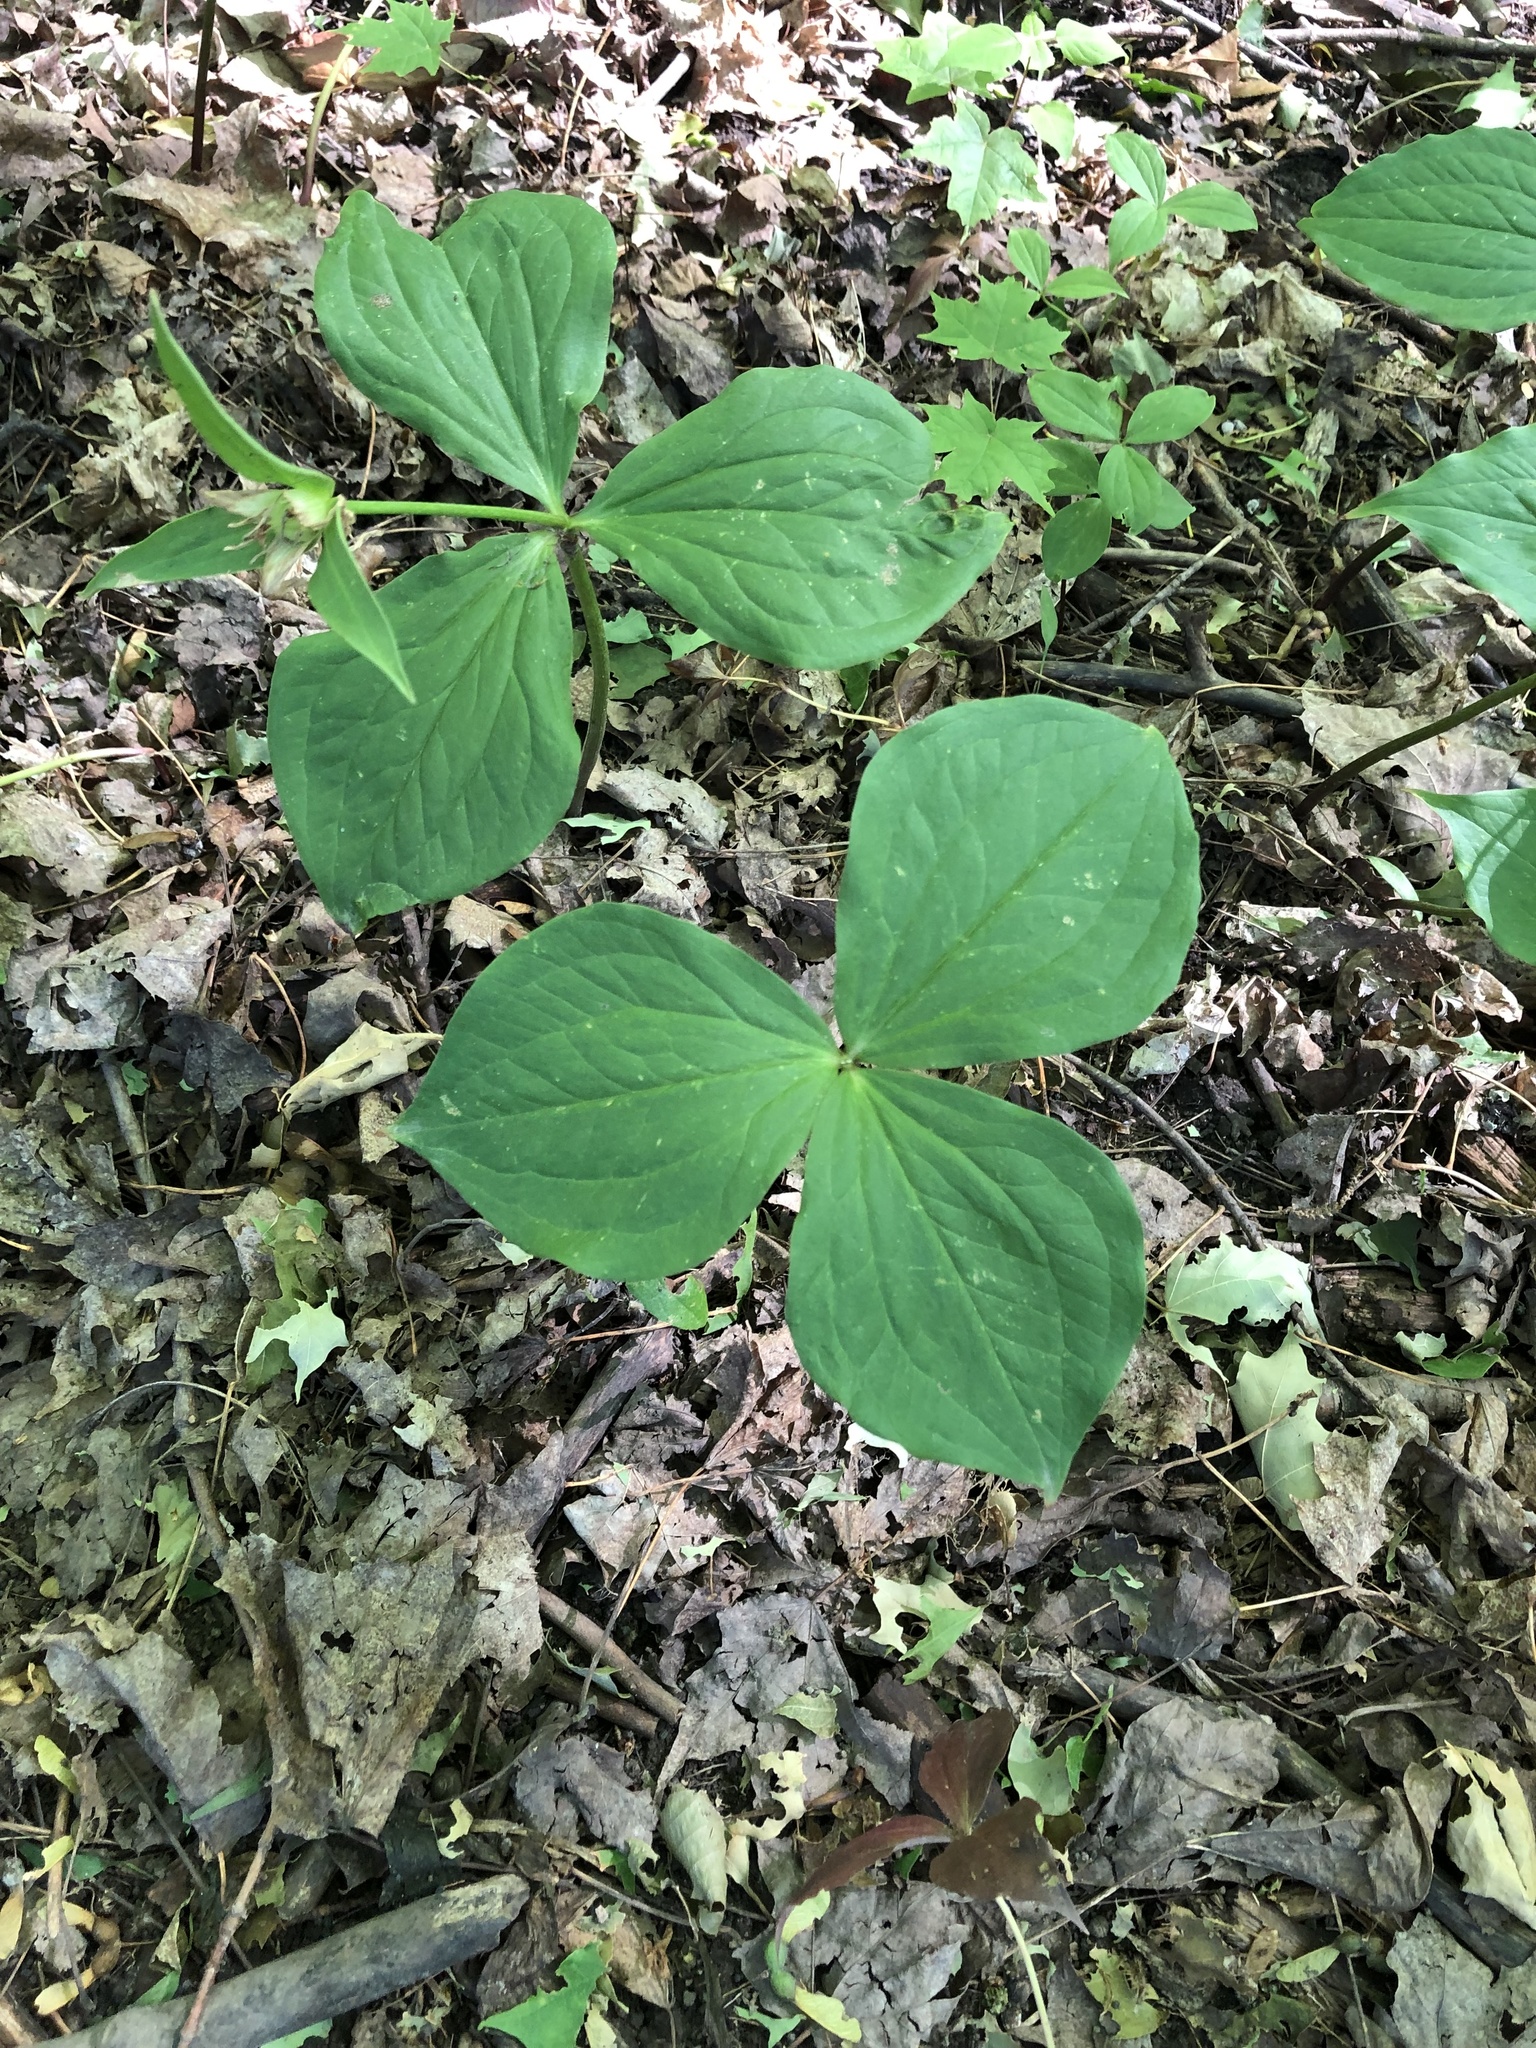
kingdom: Plantae
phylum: Tracheophyta
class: Liliopsida
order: Liliales
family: Melanthiaceae
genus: Trillium
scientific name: Trillium grandiflorum
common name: Great white trillium
